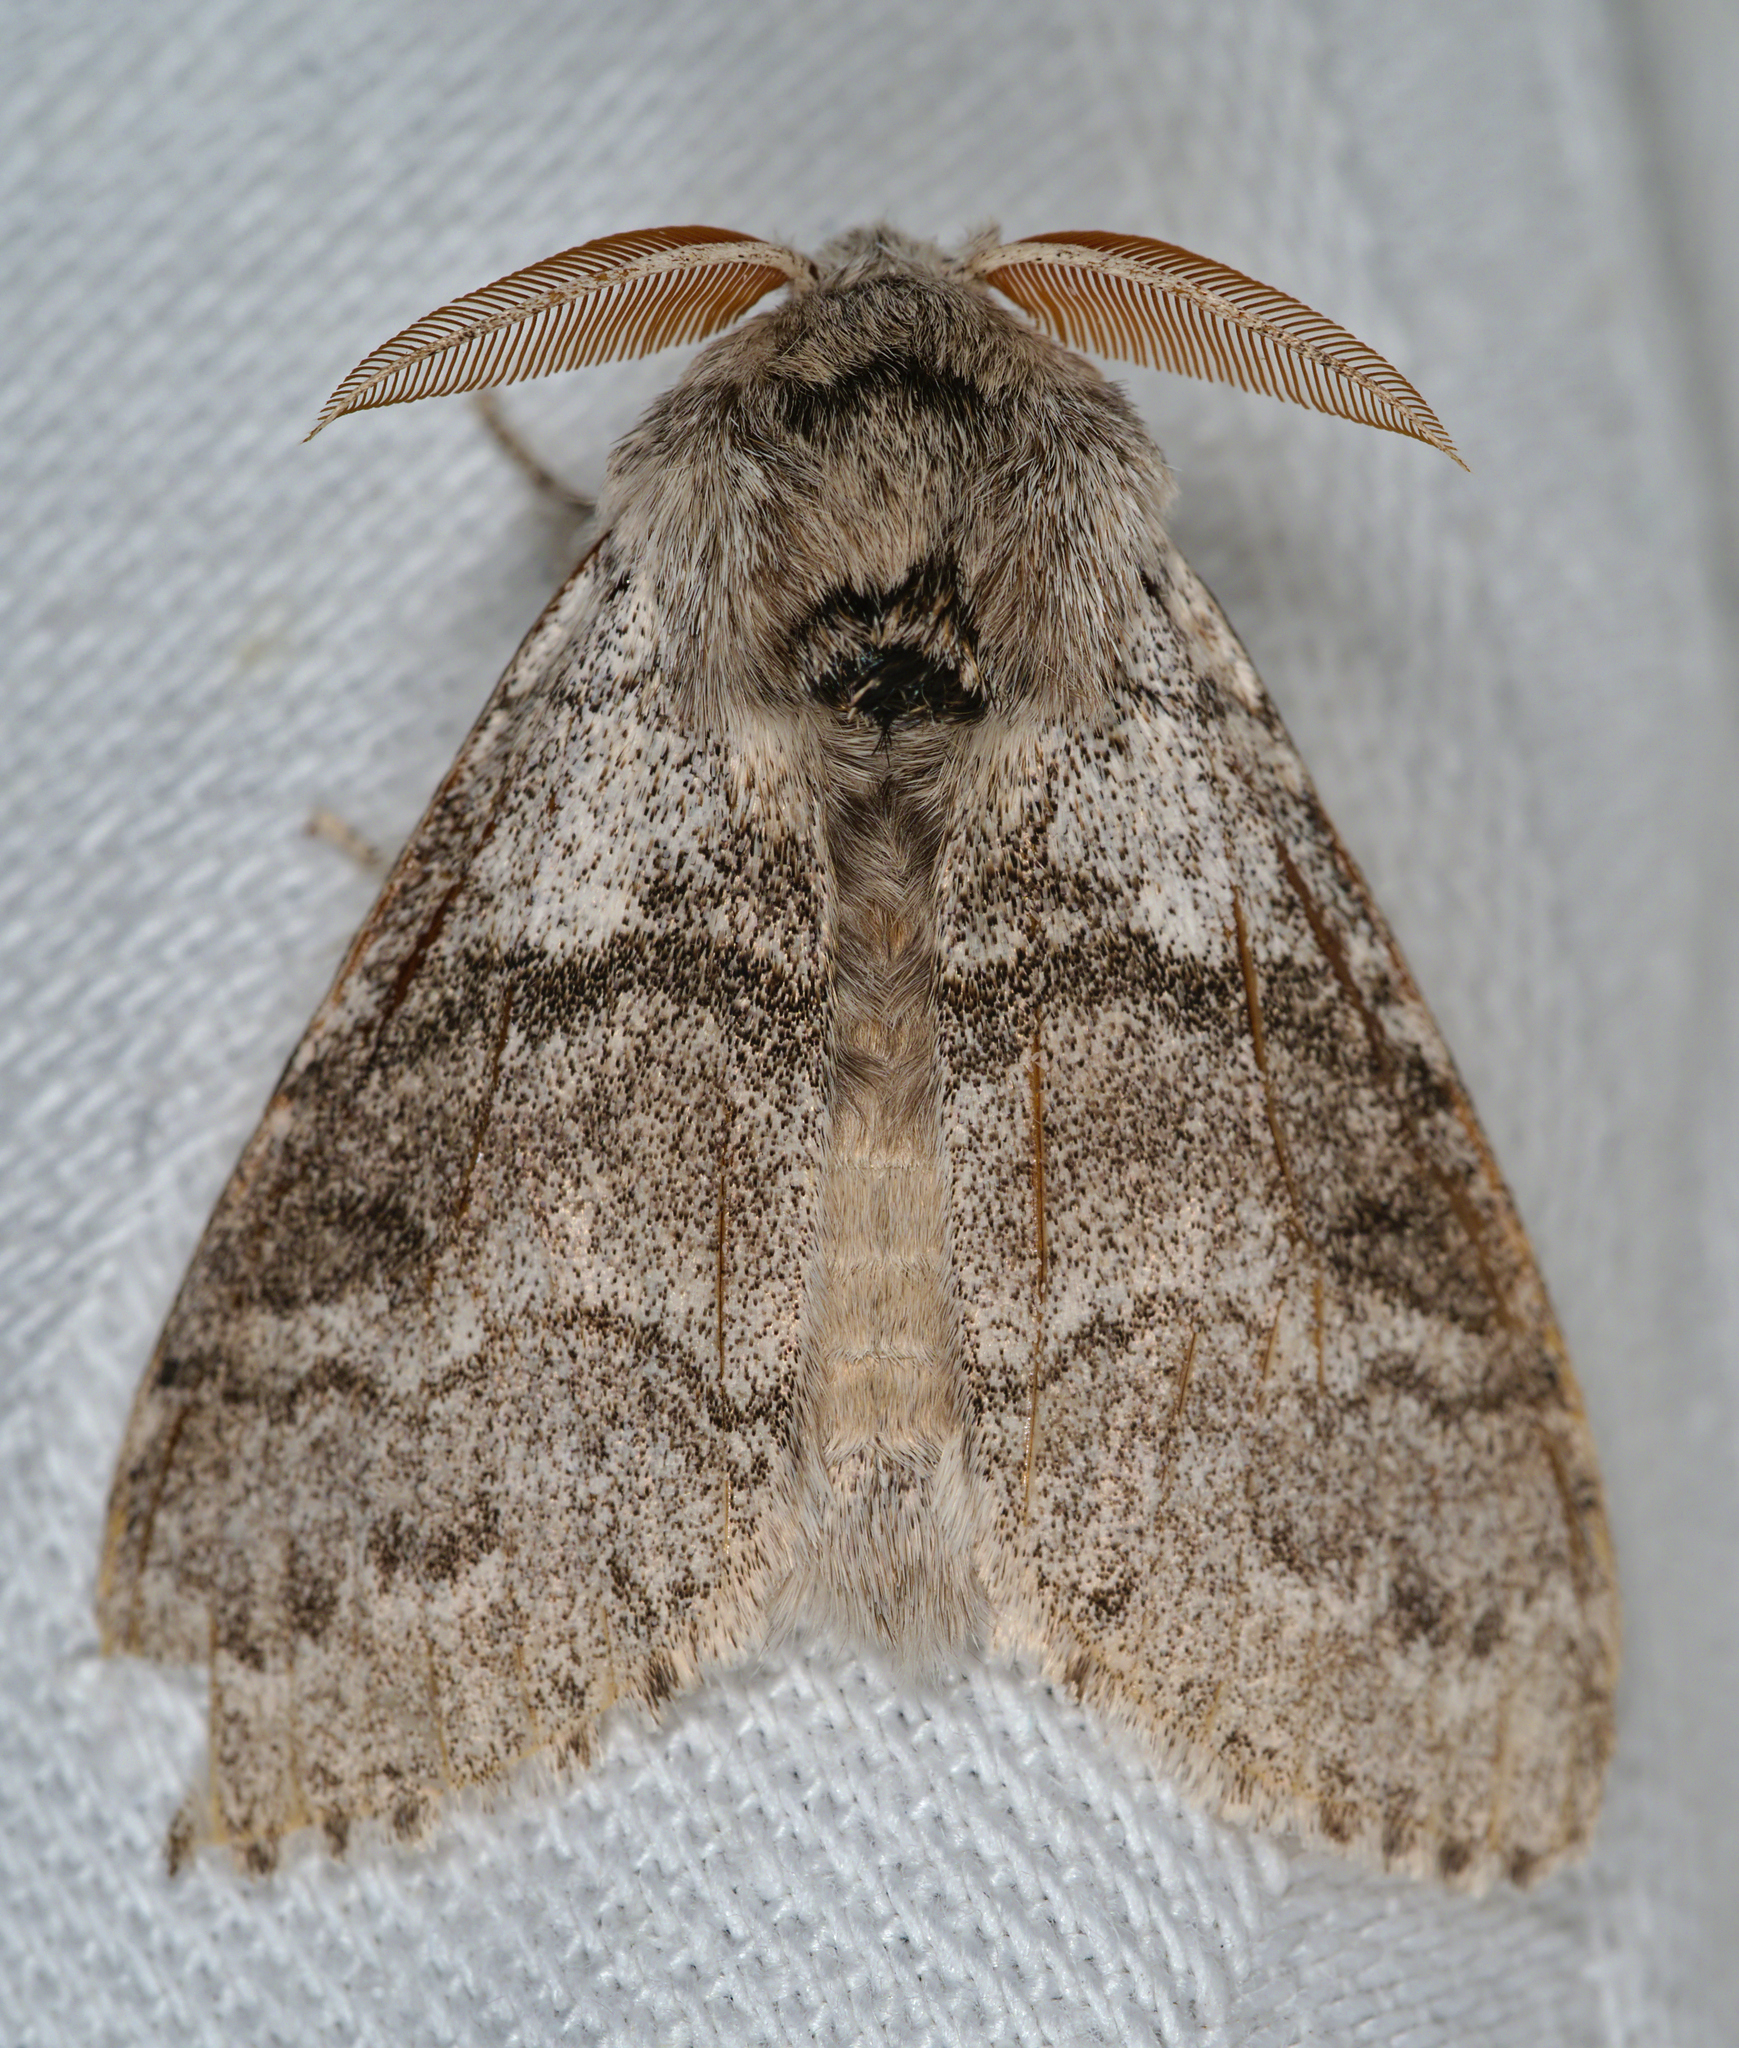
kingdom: Animalia
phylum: Arthropoda
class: Insecta
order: Lepidoptera
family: Erebidae
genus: Calliteara
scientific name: Calliteara pudibunda
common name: Pale tussock
